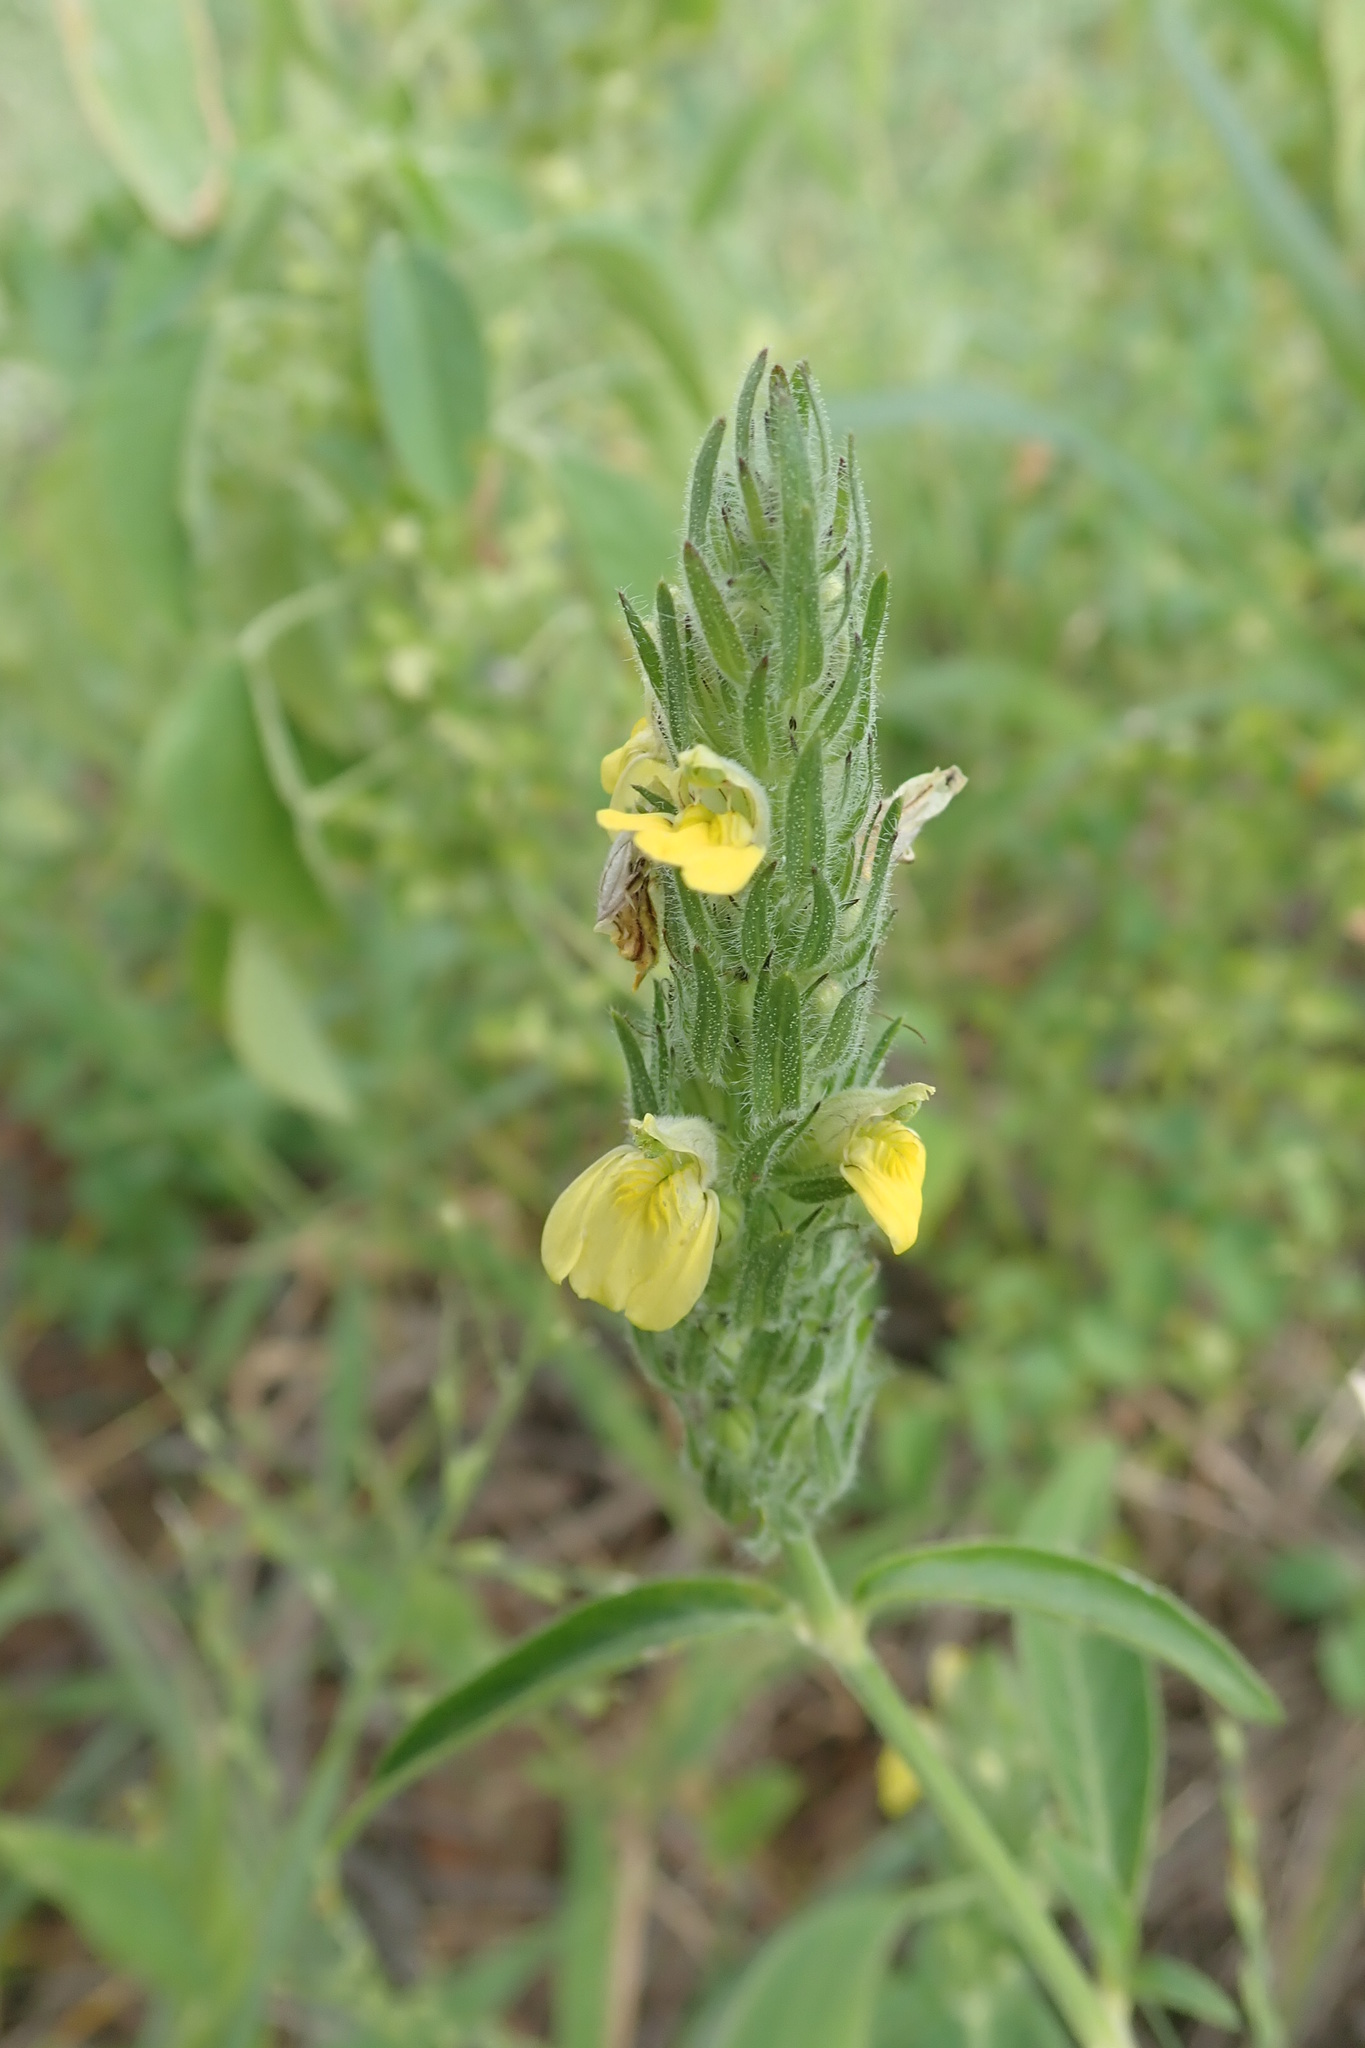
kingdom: Plantae
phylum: Tracheophyta
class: Magnoliopsida
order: Lamiales
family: Acanthaceae
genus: Justicia
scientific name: Justicia flava
